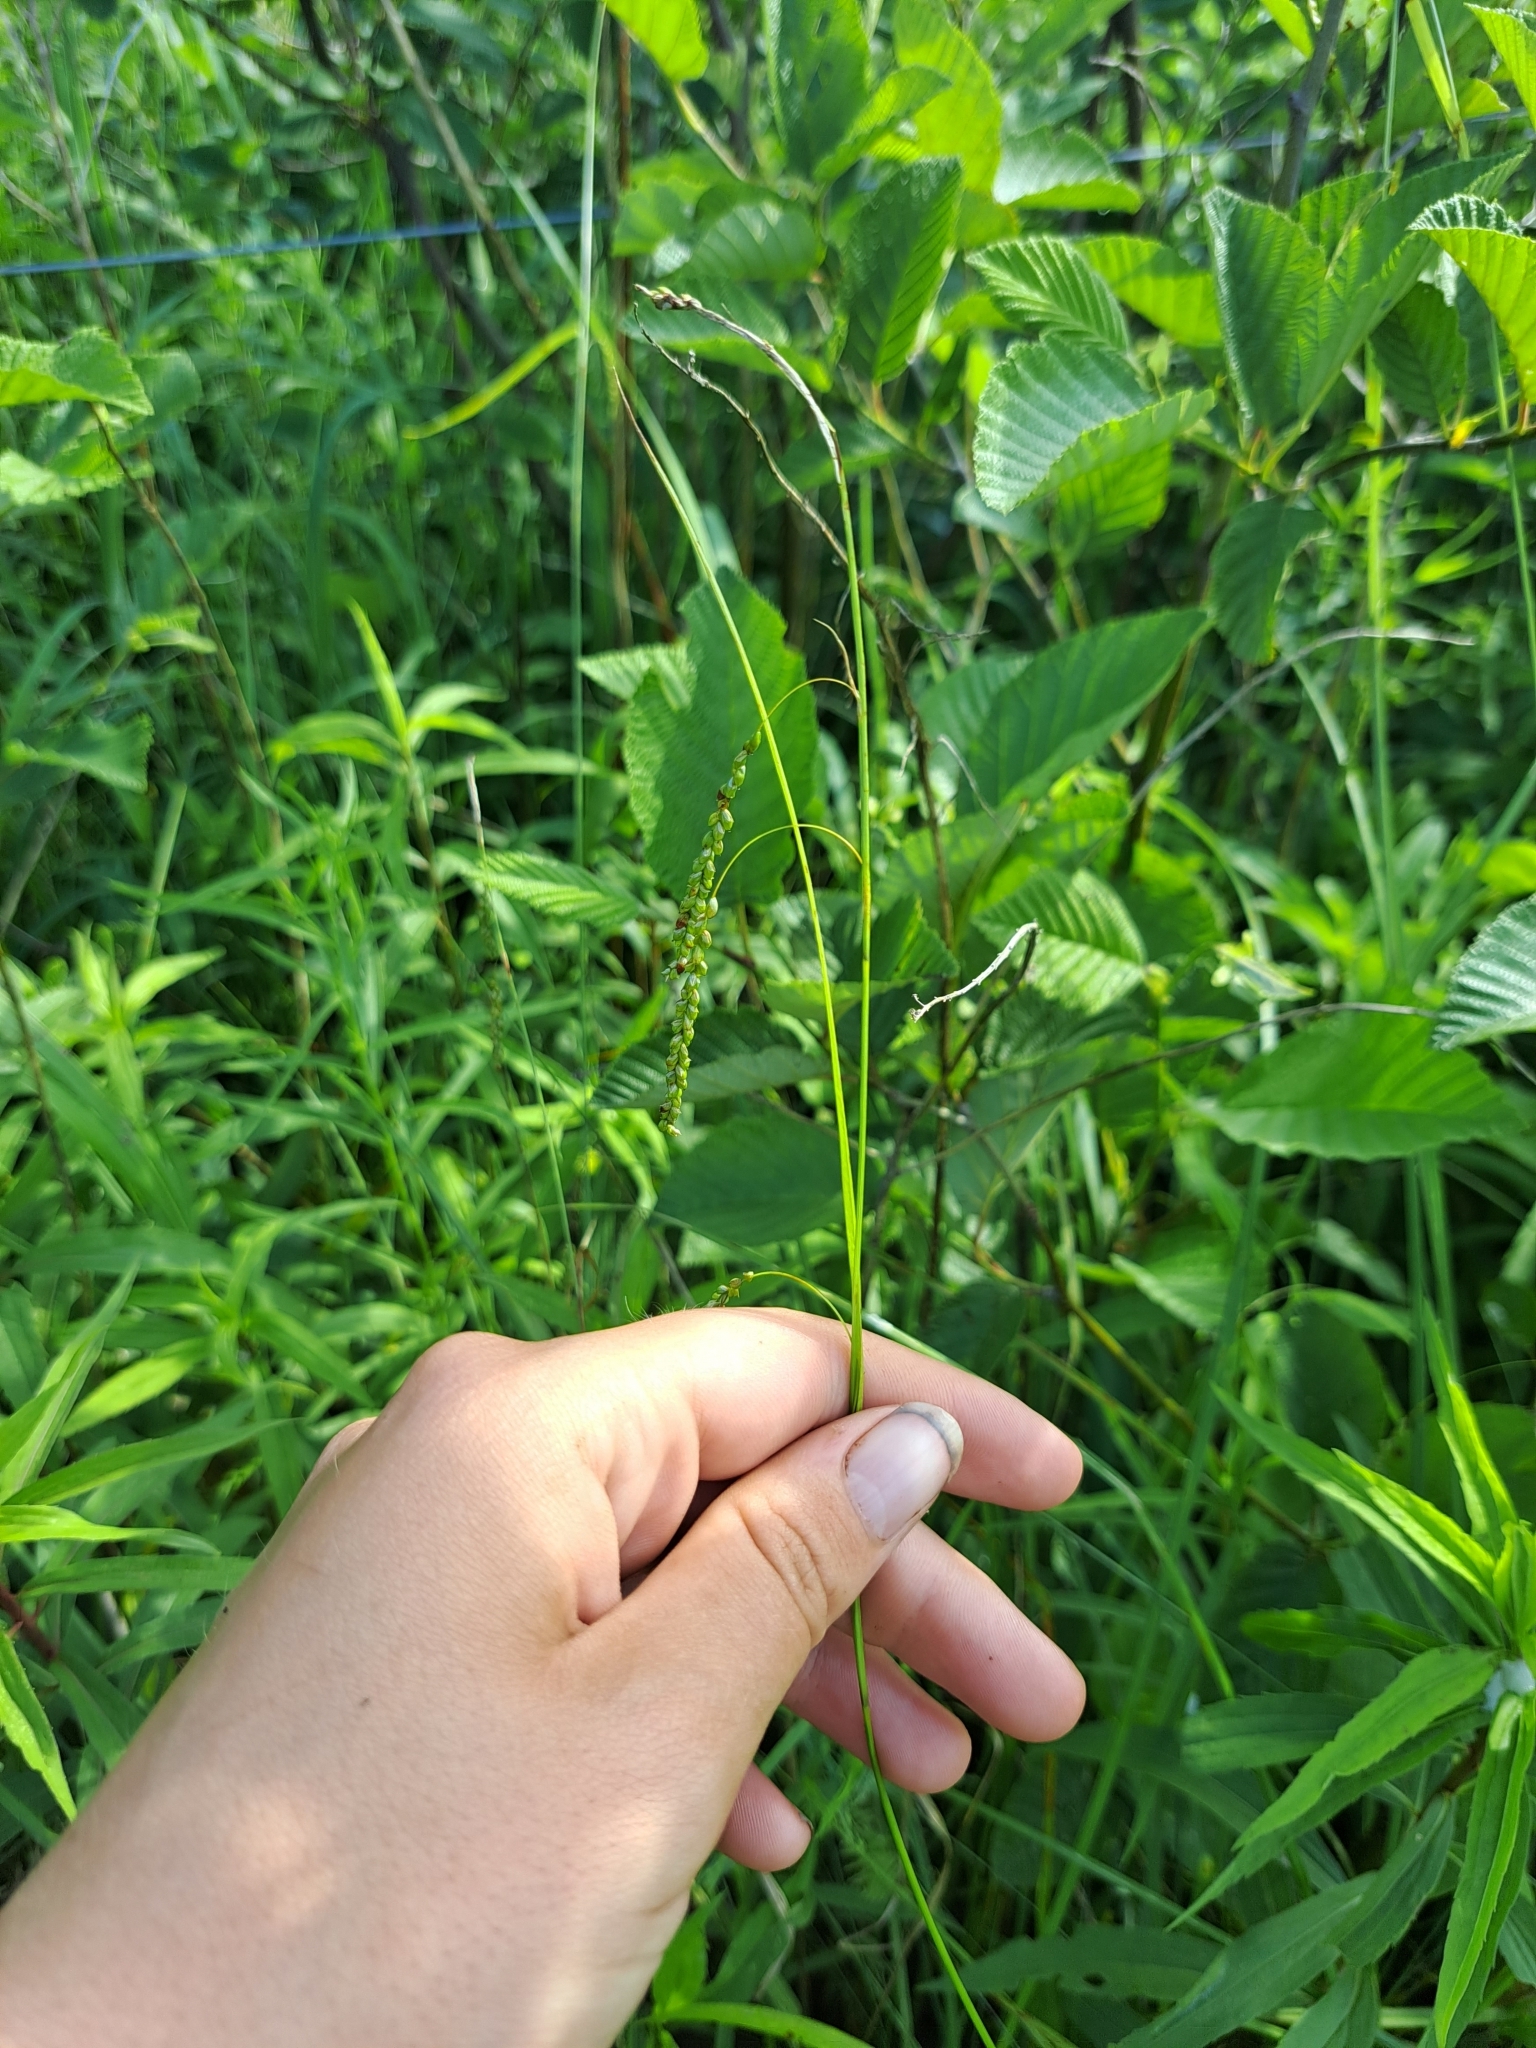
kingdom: Plantae
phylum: Tracheophyta
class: Liliopsida
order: Poales
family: Cyperaceae
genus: Carex
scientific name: Carex gracillima
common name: Graceful sedge
